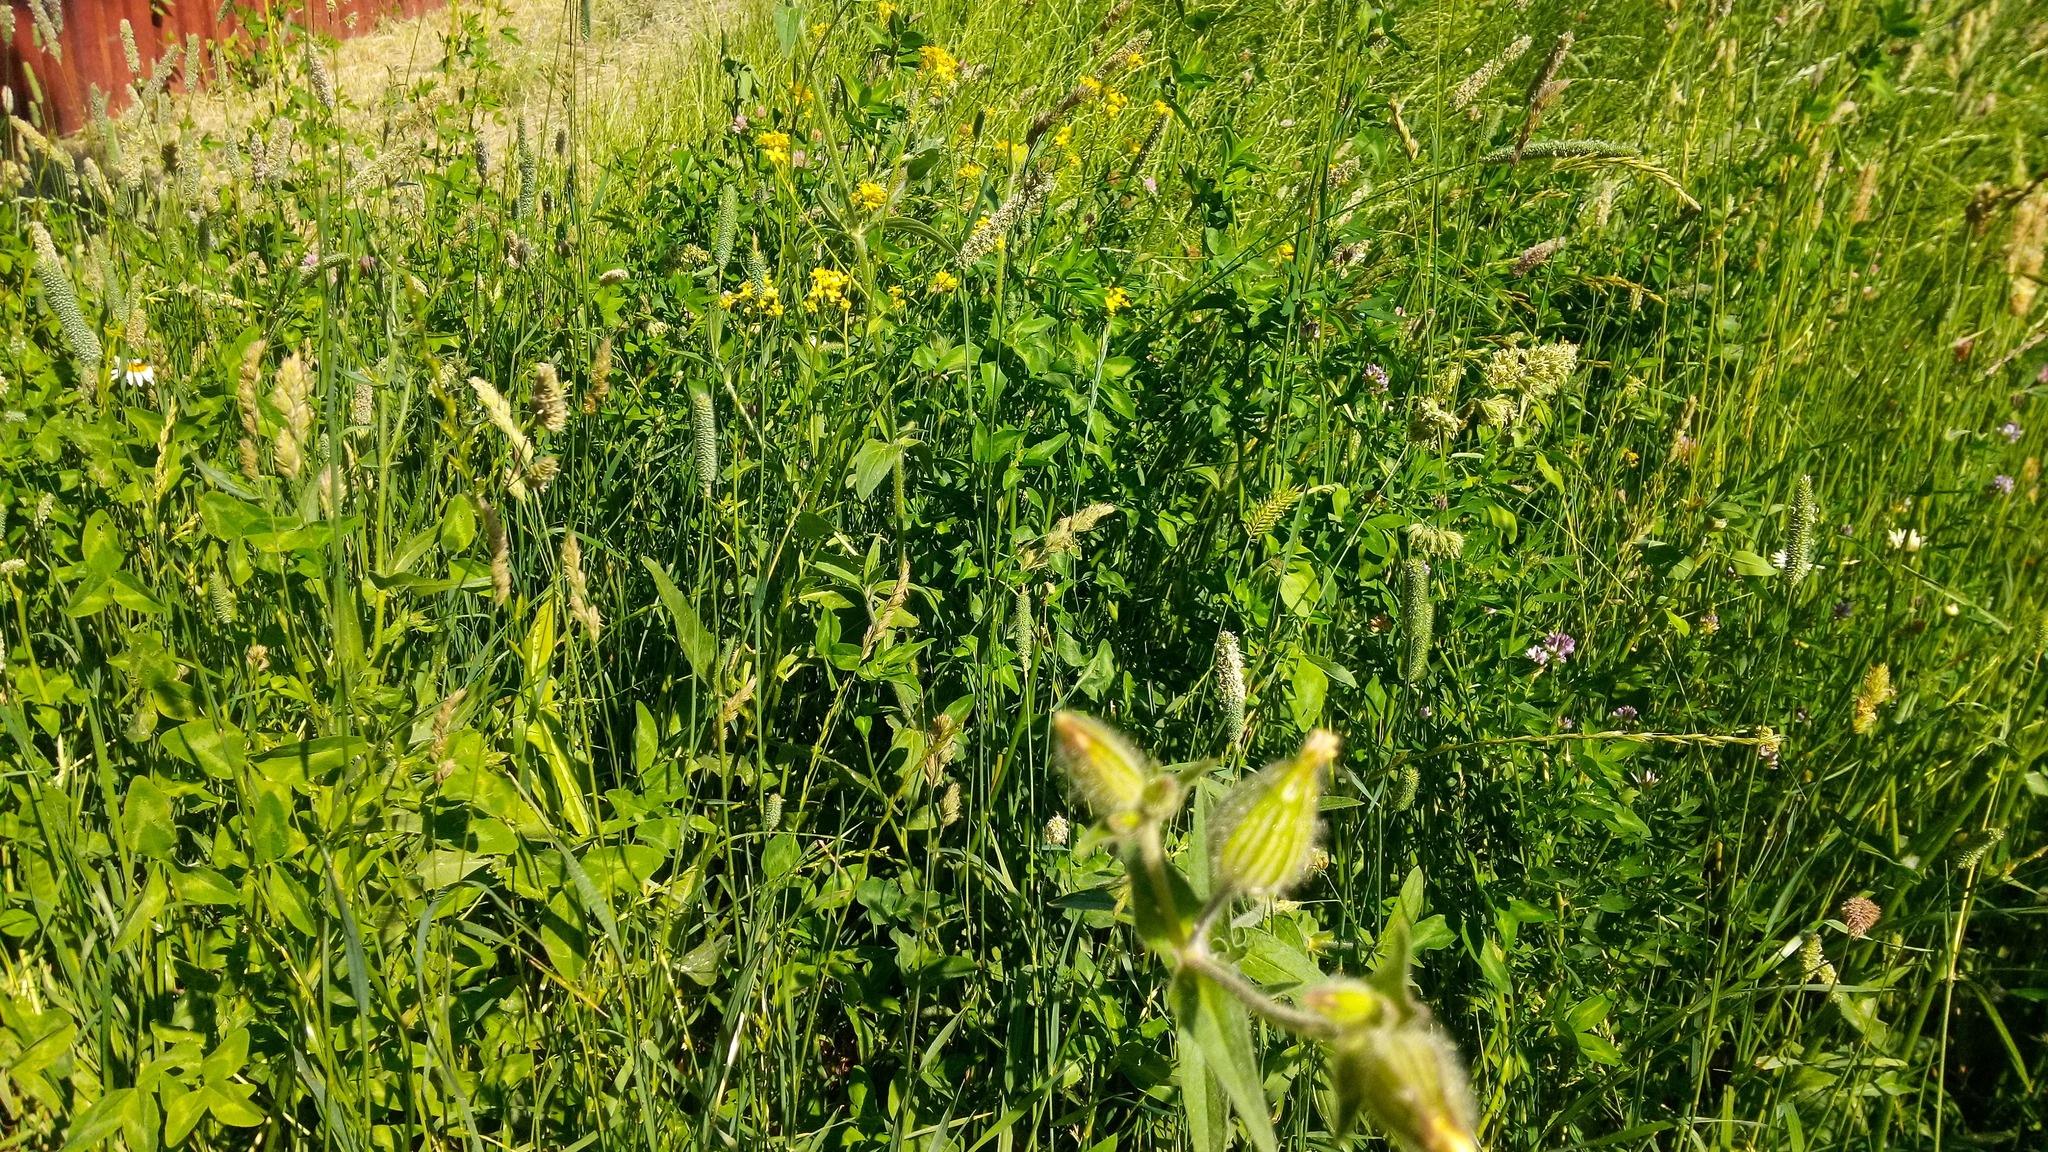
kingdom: Plantae
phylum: Tracheophyta
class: Magnoliopsida
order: Caryophyllales
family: Caryophyllaceae
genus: Silene
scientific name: Silene latifolia
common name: White campion
